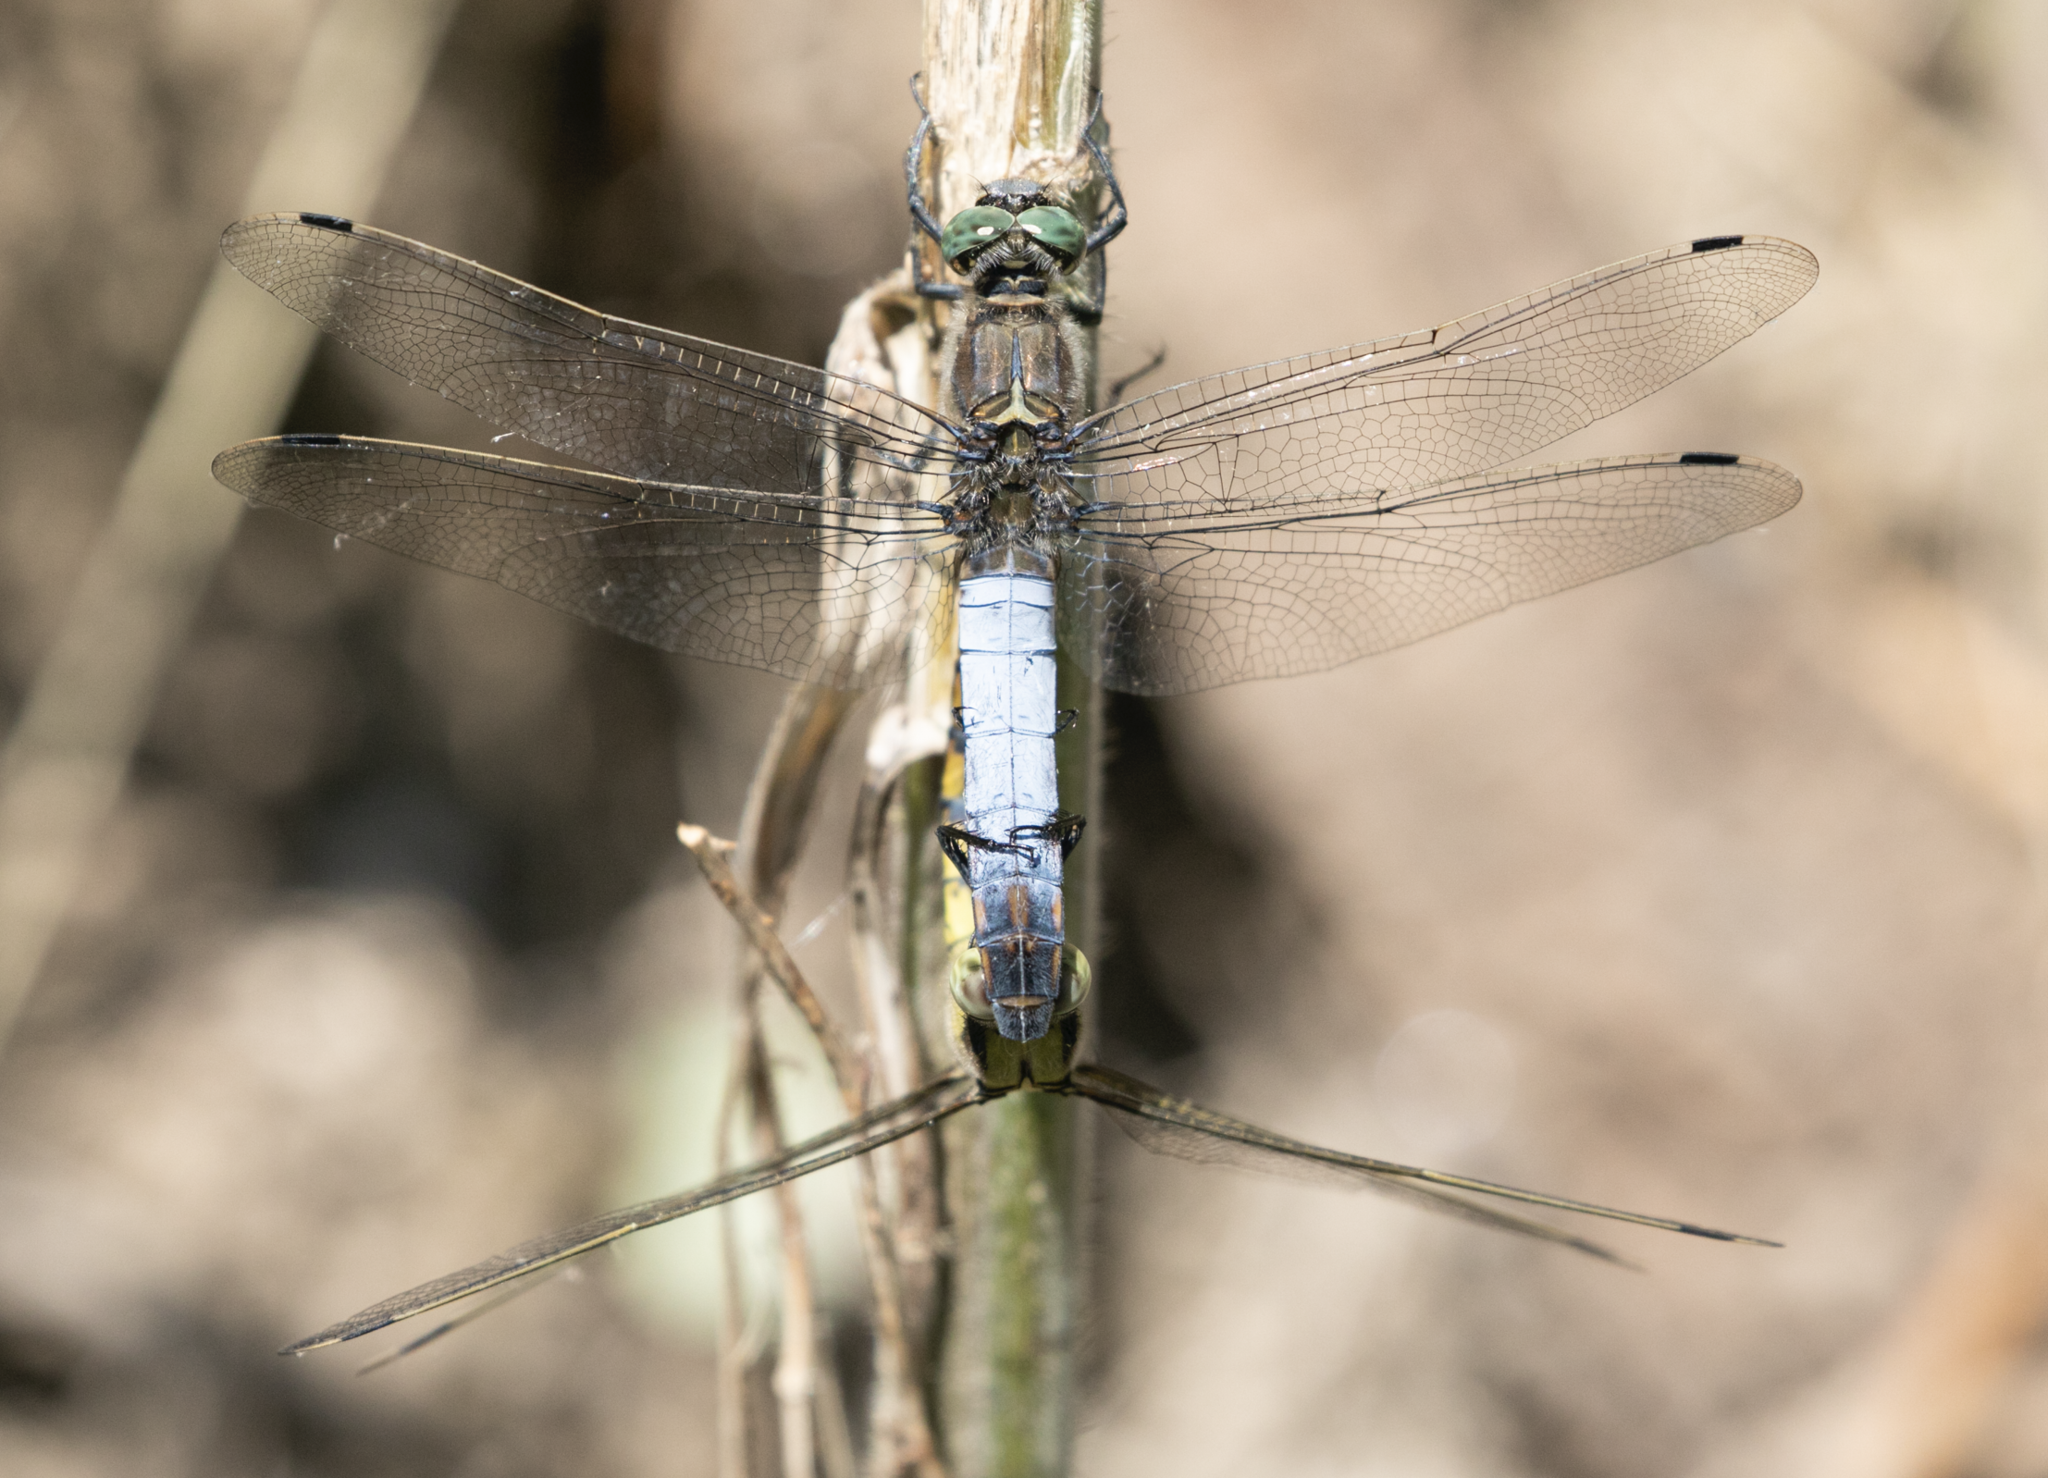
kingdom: Animalia
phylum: Arthropoda
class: Insecta
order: Odonata
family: Libellulidae
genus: Orthetrum
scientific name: Orthetrum cancellatum
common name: Black-tailed skimmer
